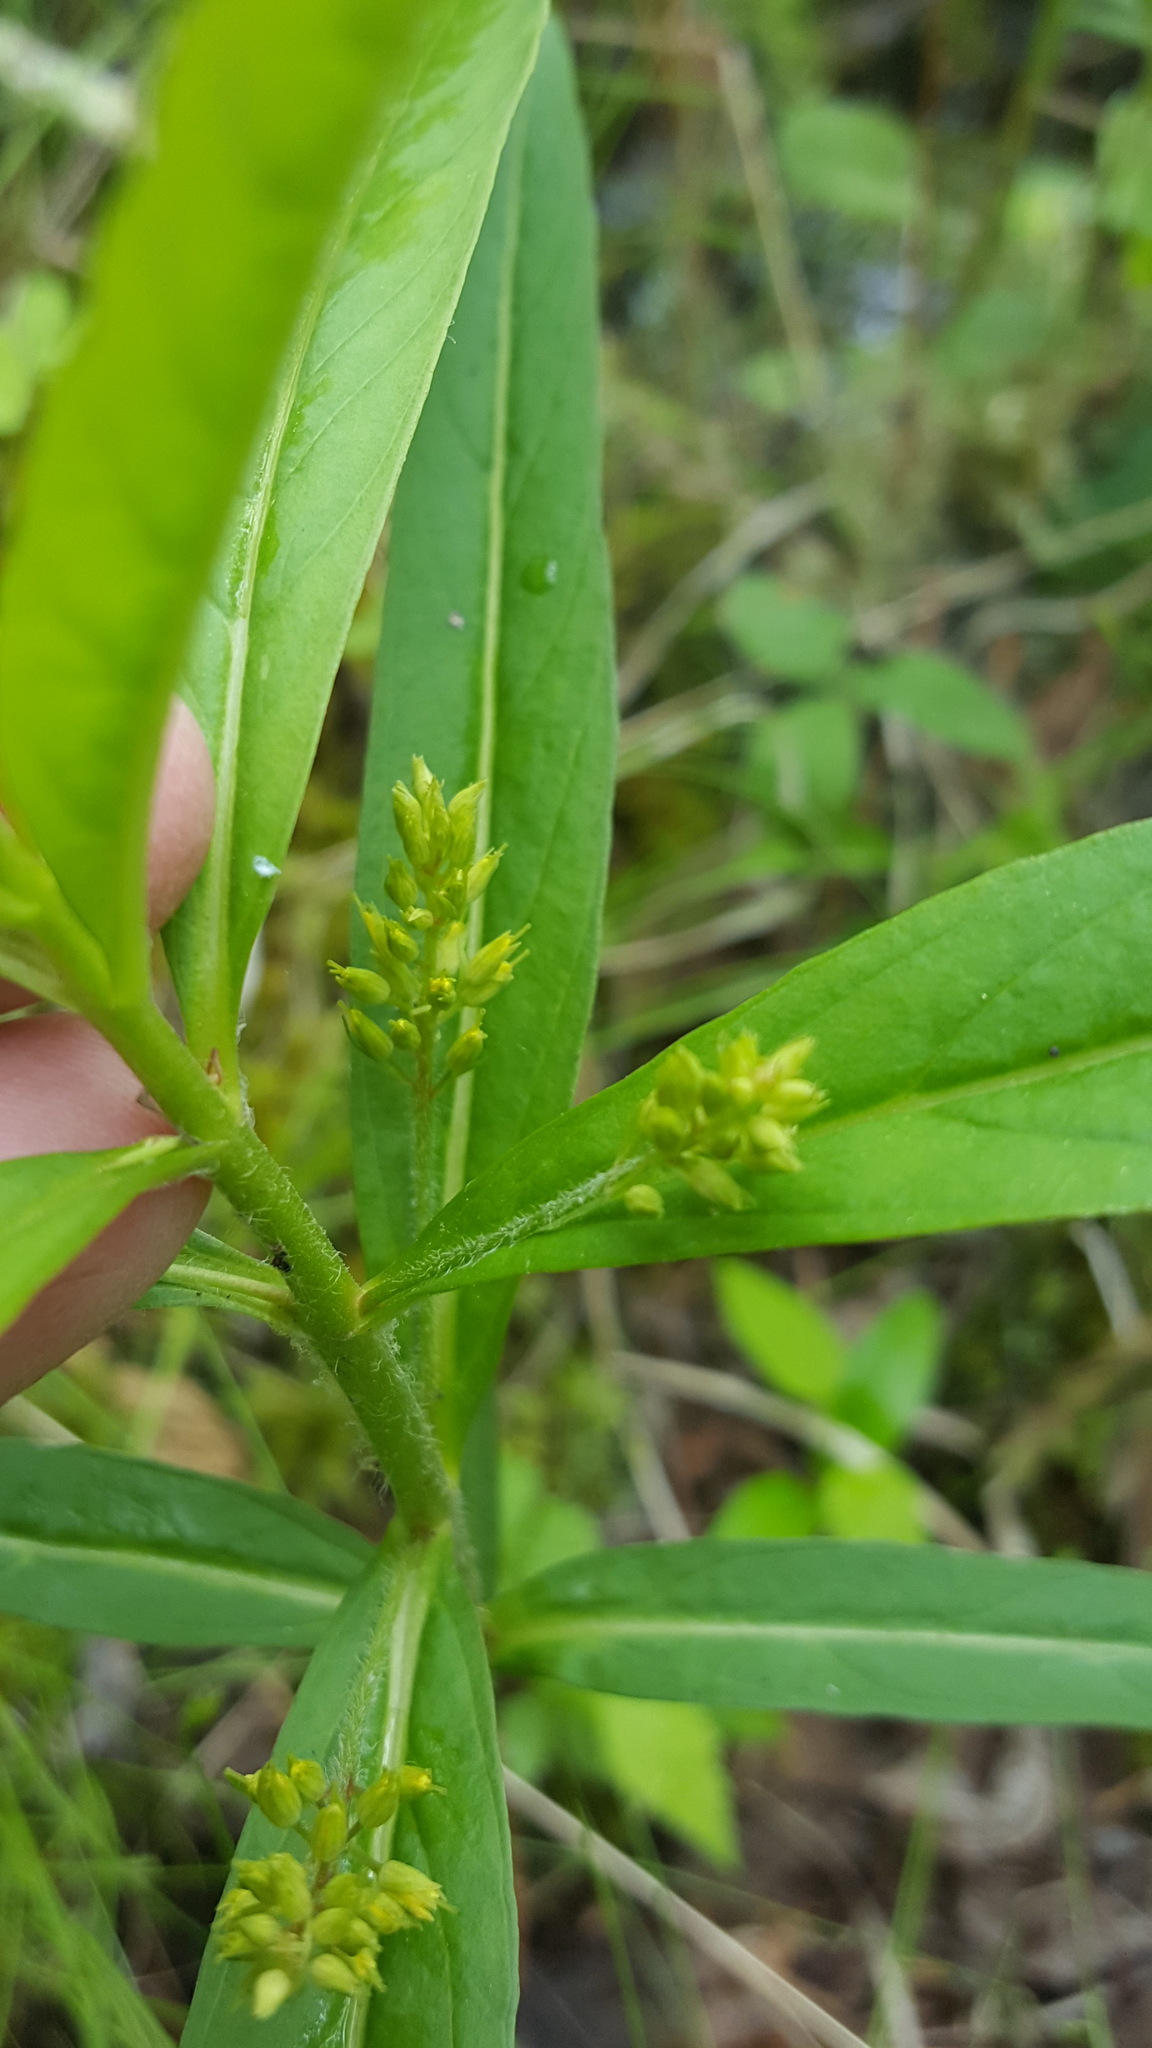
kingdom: Plantae
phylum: Tracheophyta
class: Magnoliopsida
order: Ericales
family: Primulaceae
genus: Lysimachia
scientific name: Lysimachia thyrsiflora
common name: Tufted loosestrife
